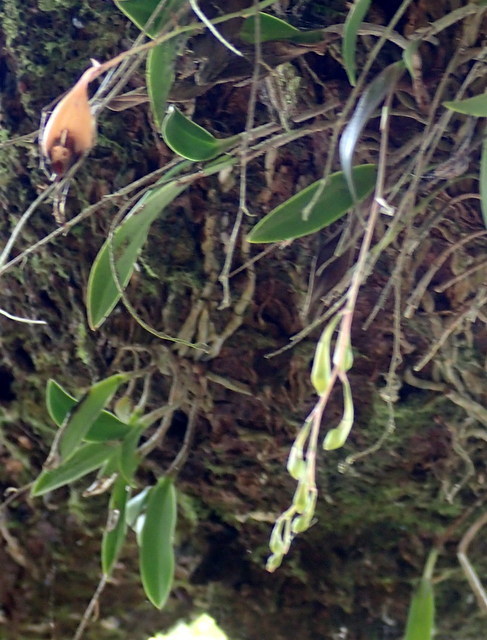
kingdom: Plantae
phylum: Tracheophyta
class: Liliopsida
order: Asparagales
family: Orchidaceae
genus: Epidendrum
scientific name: Epidendrum conopseum
